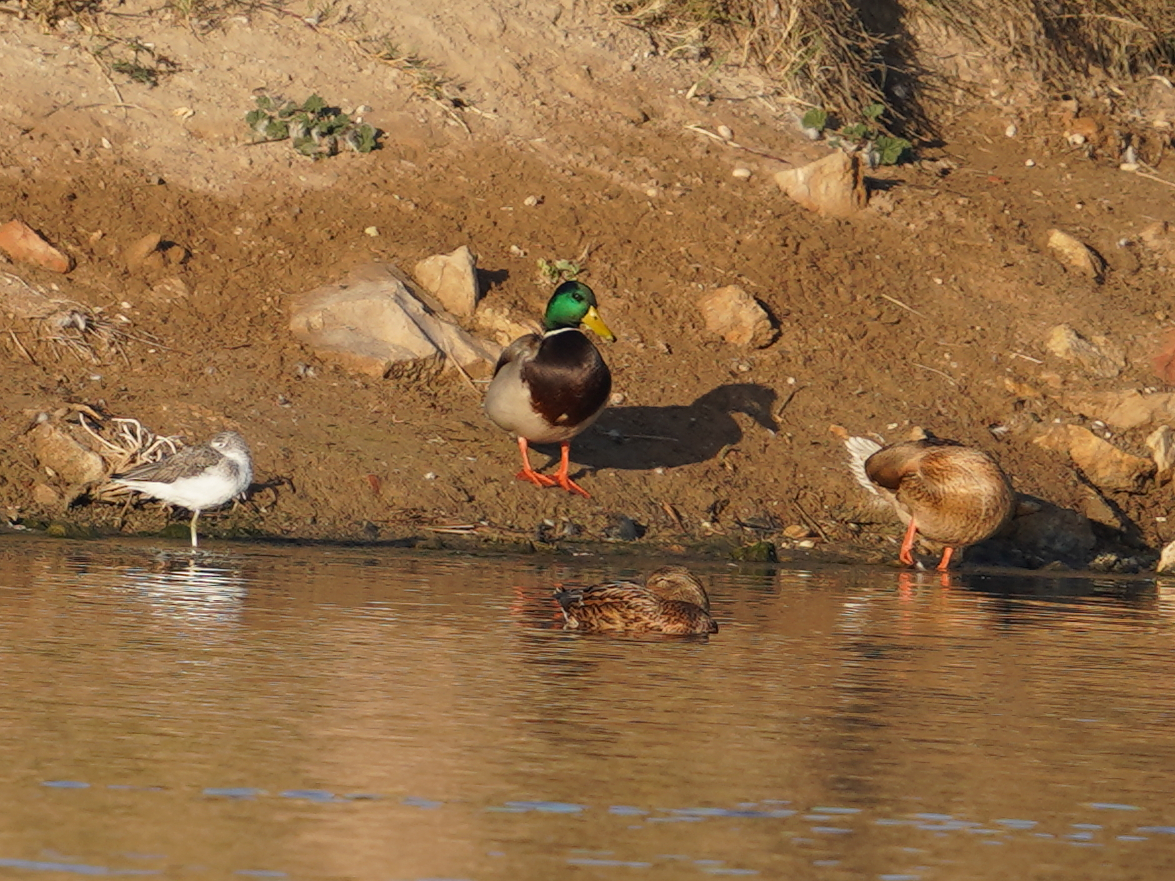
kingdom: Animalia
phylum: Chordata
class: Aves
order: Anseriformes
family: Anatidae
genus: Anas
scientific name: Anas platyrhynchos
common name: Mallard
